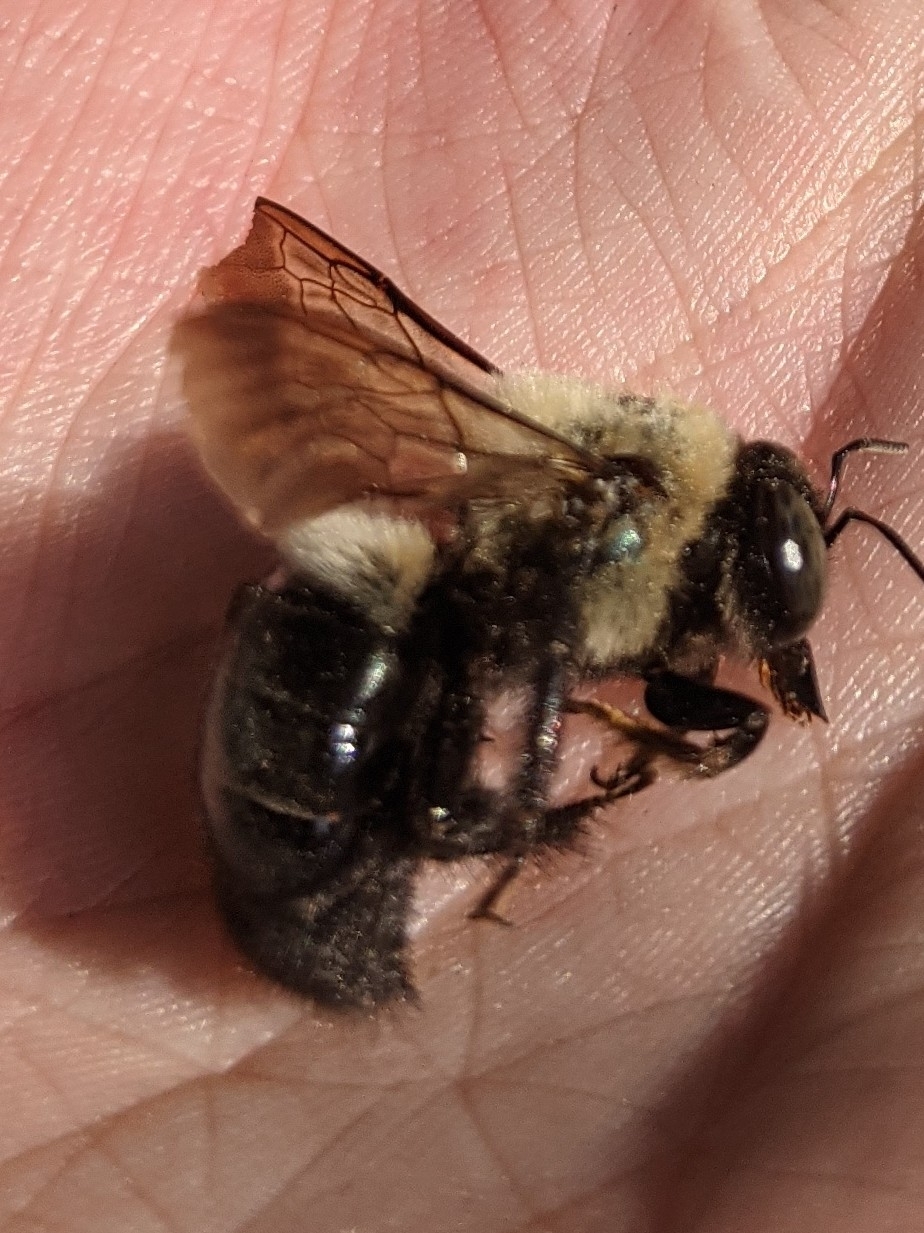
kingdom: Animalia
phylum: Arthropoda
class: Insecta
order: Hymenoptera
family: Apidae
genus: Xylocopa
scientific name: Xylocopa virginica
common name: Carpenter bee
